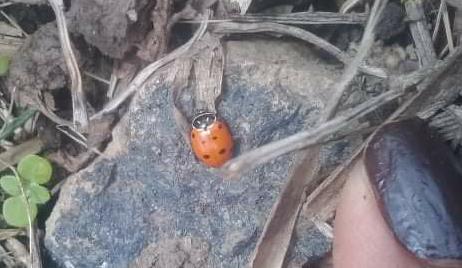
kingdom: Animalia
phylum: Arthropoda
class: Insecta
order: Coleoptera
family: Coccinellidae
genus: Hippodamia
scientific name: Hippodamia convergens
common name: Convergent lady beetle
